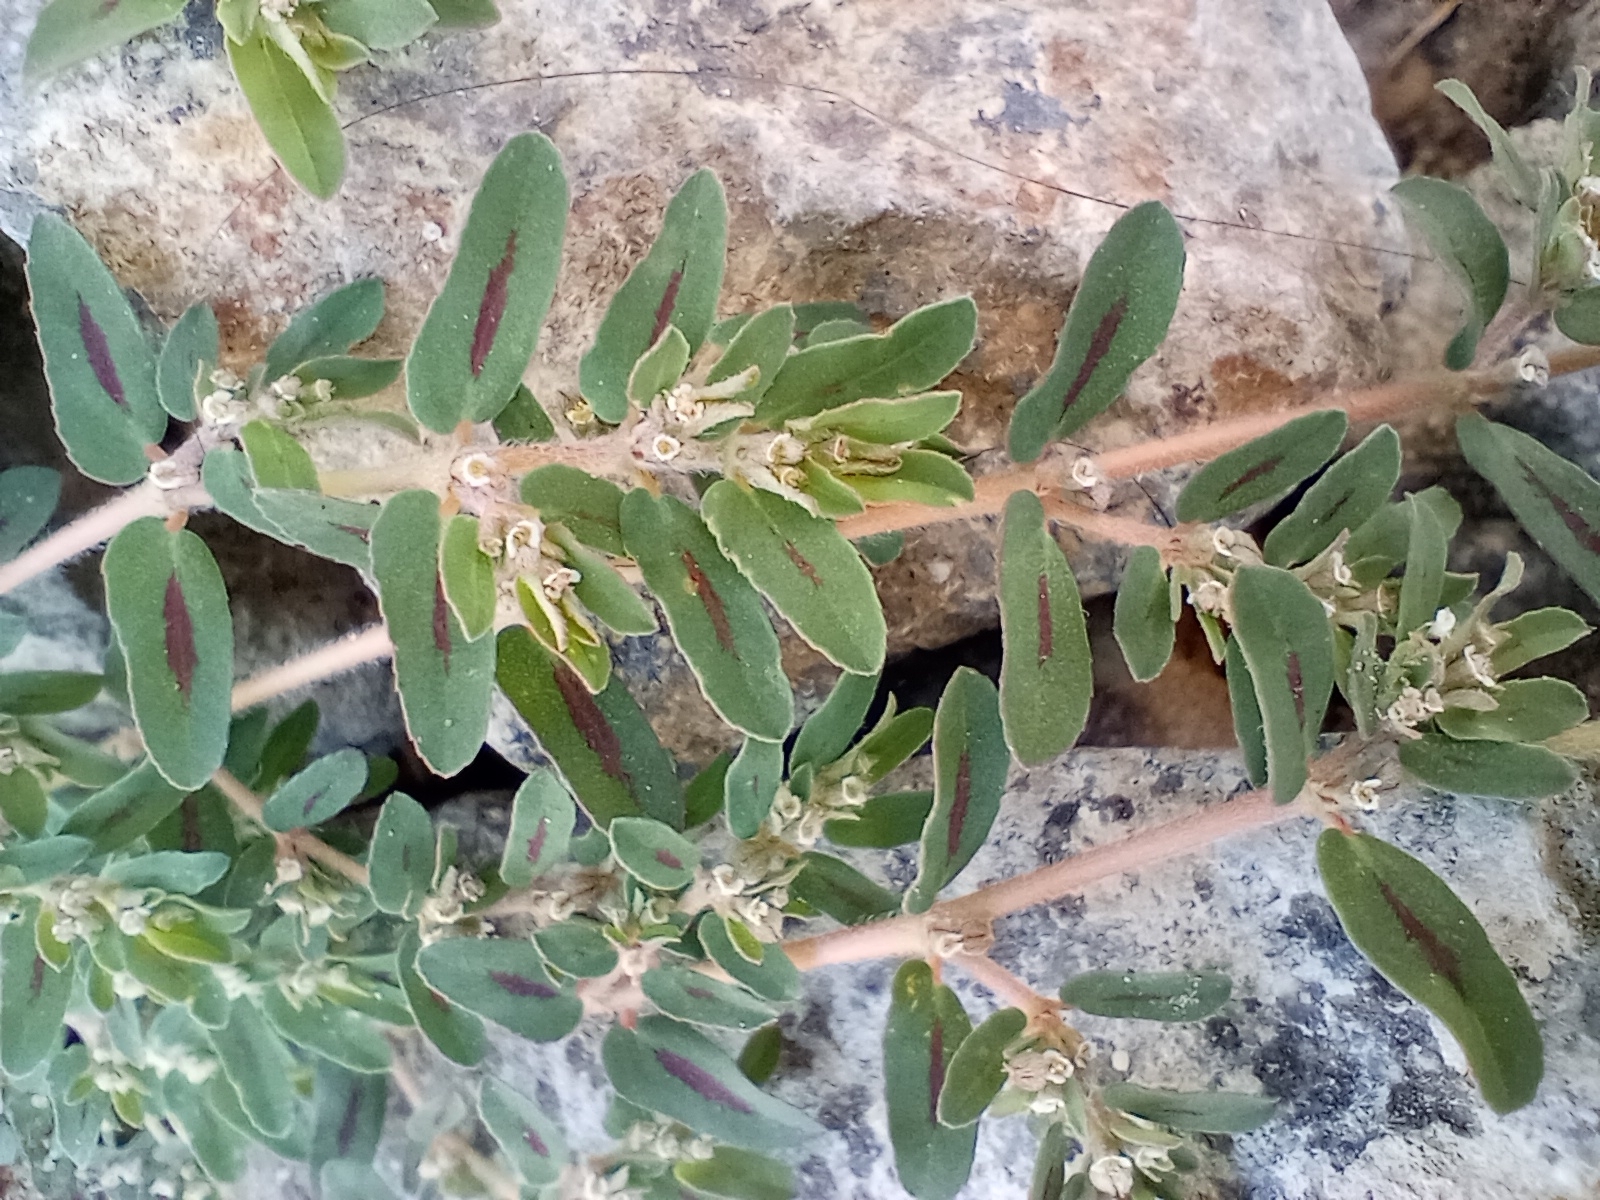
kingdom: Plantae
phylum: Tracheophyta
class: Magnoliopsida
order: Malpighiales
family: Euphorbiaceae
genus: Euphorbia
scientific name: Euphorbia maculata
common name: Spotted spurge
